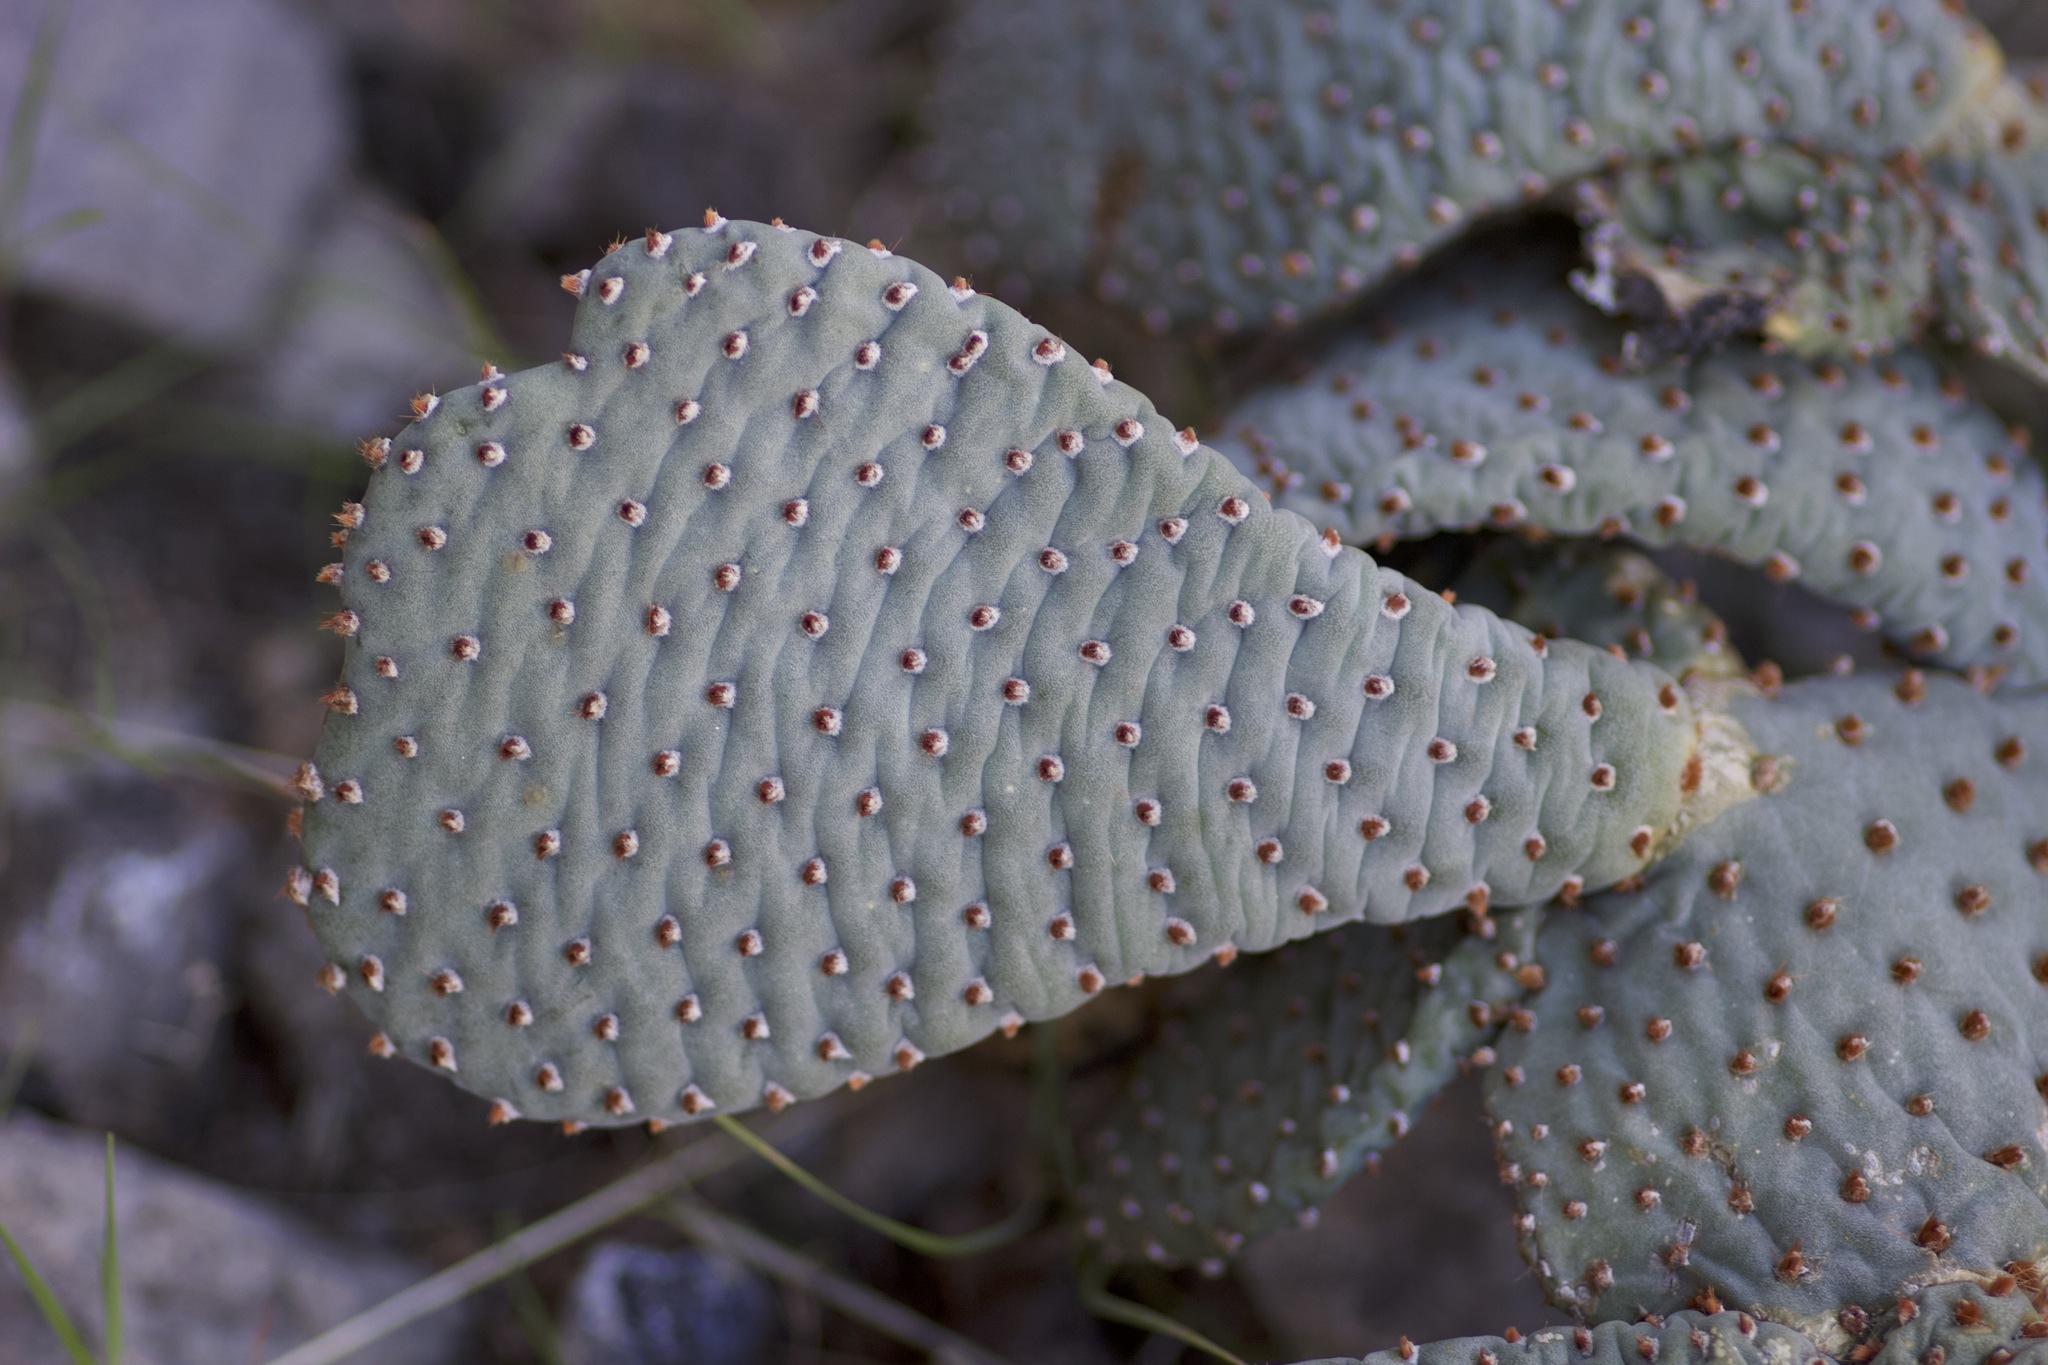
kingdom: Plantae
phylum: Tracheophyta
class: Magnoliopsida
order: Caryophyllales
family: Cactaceae
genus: Opuntia
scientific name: Opuntia basilaris
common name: Beavertail prickly-pear
